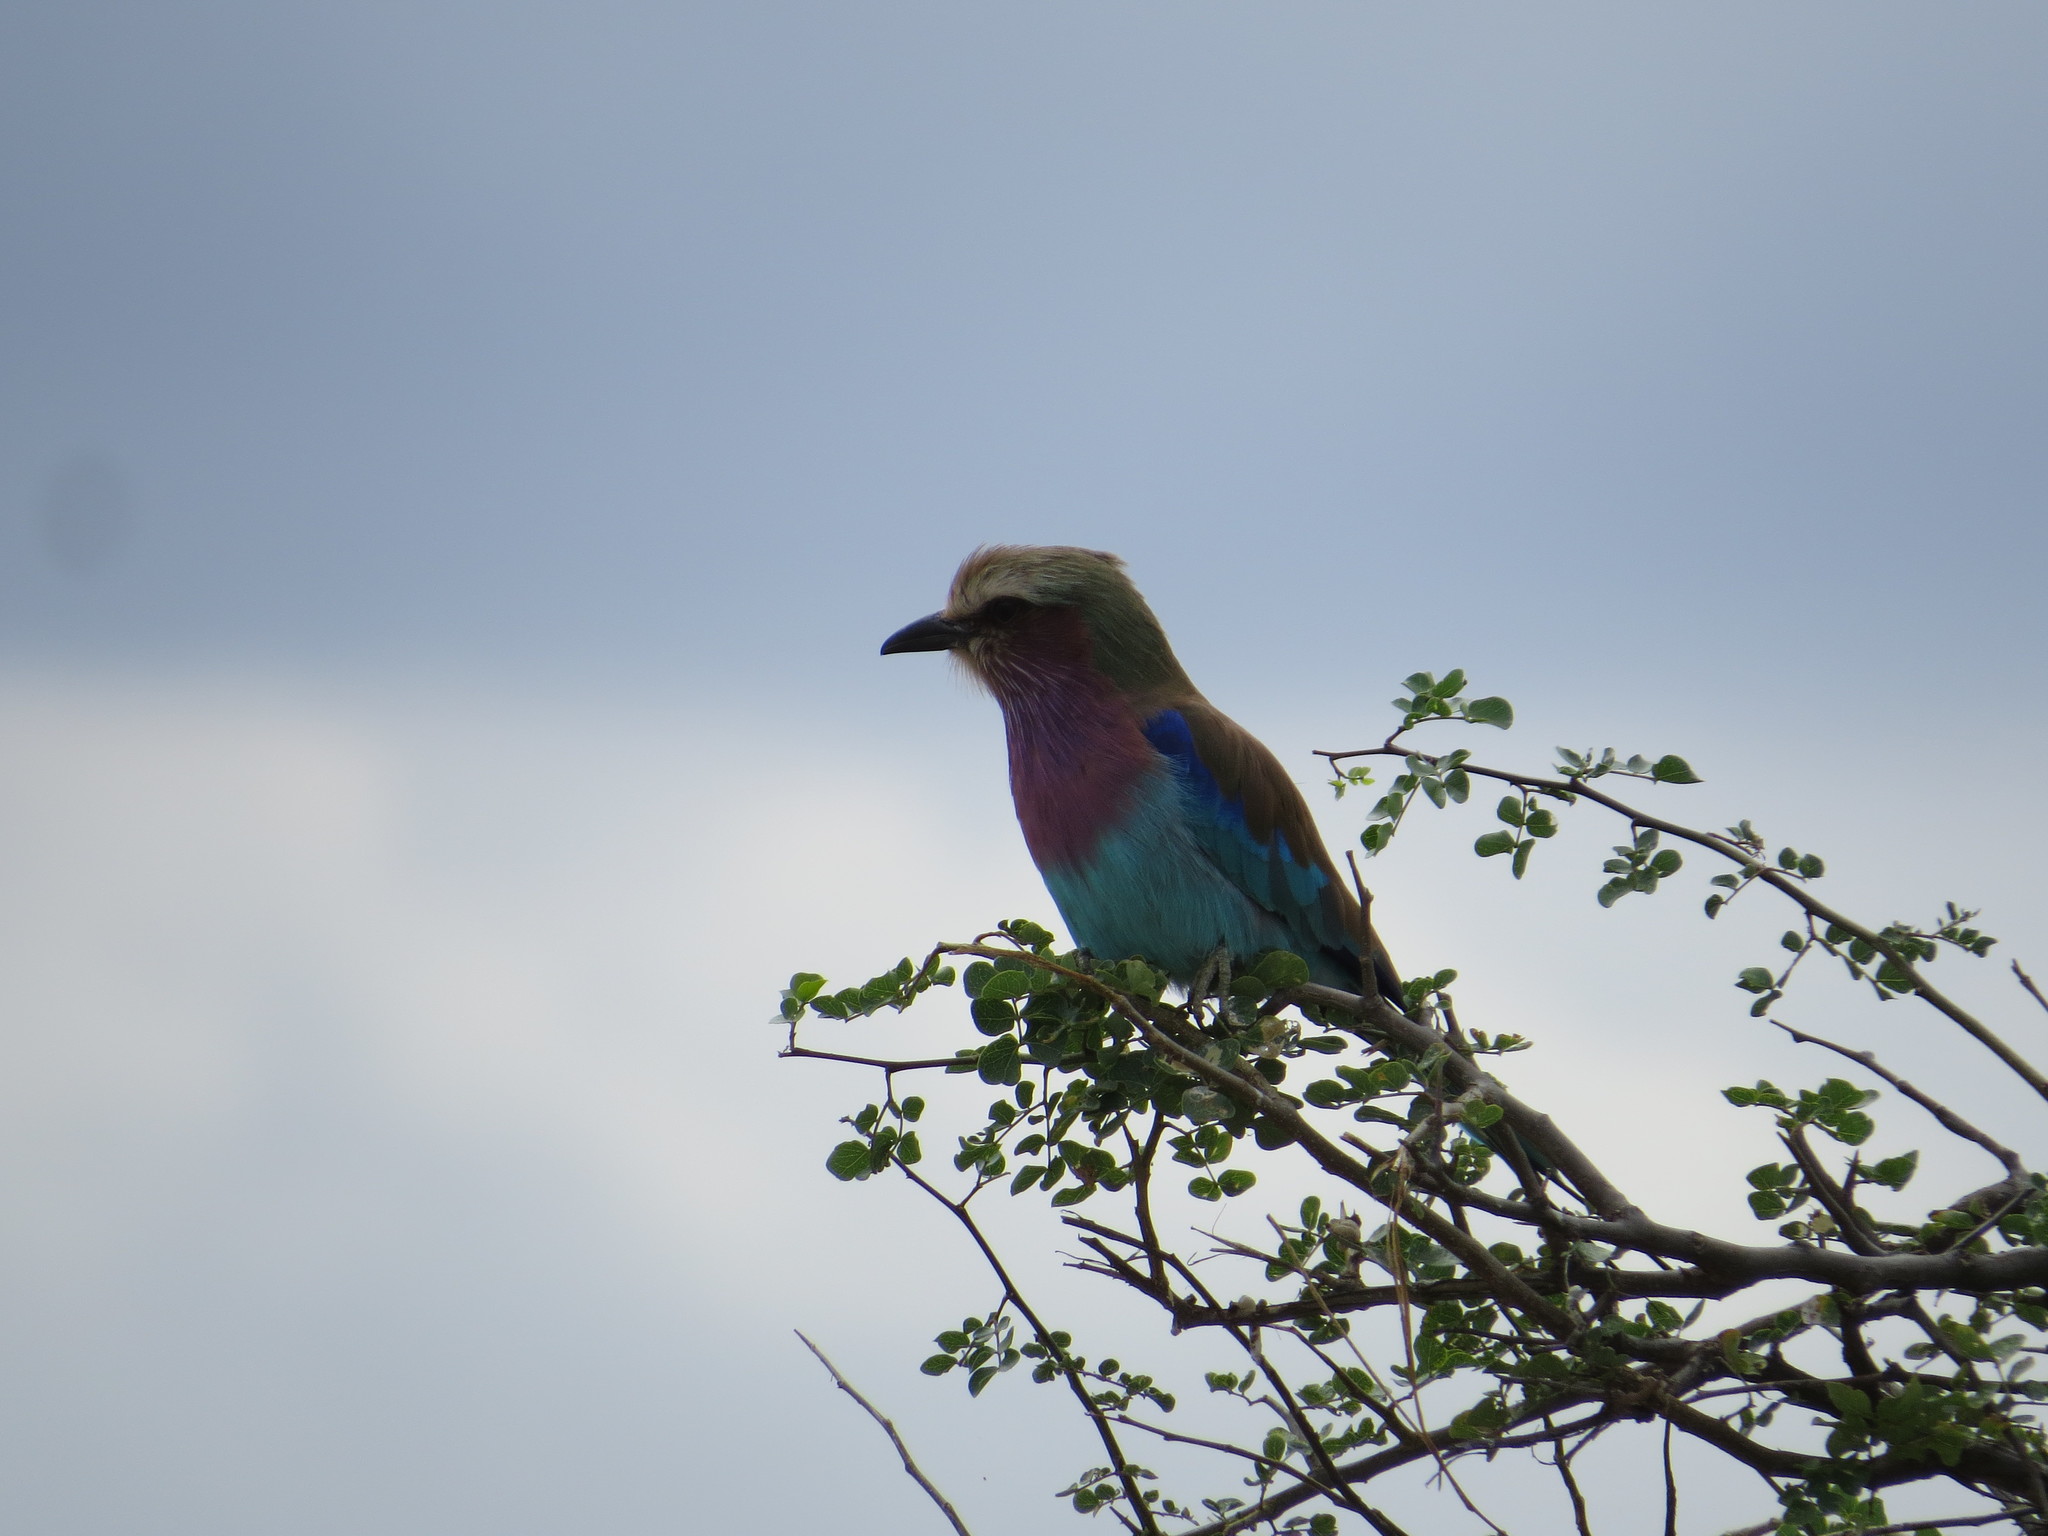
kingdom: Animalia
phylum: Chordata
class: Aves
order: Coraciiformes
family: Coraciidae
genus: Coracias
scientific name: Coracias caudatus
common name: Lilac-breasted roller
